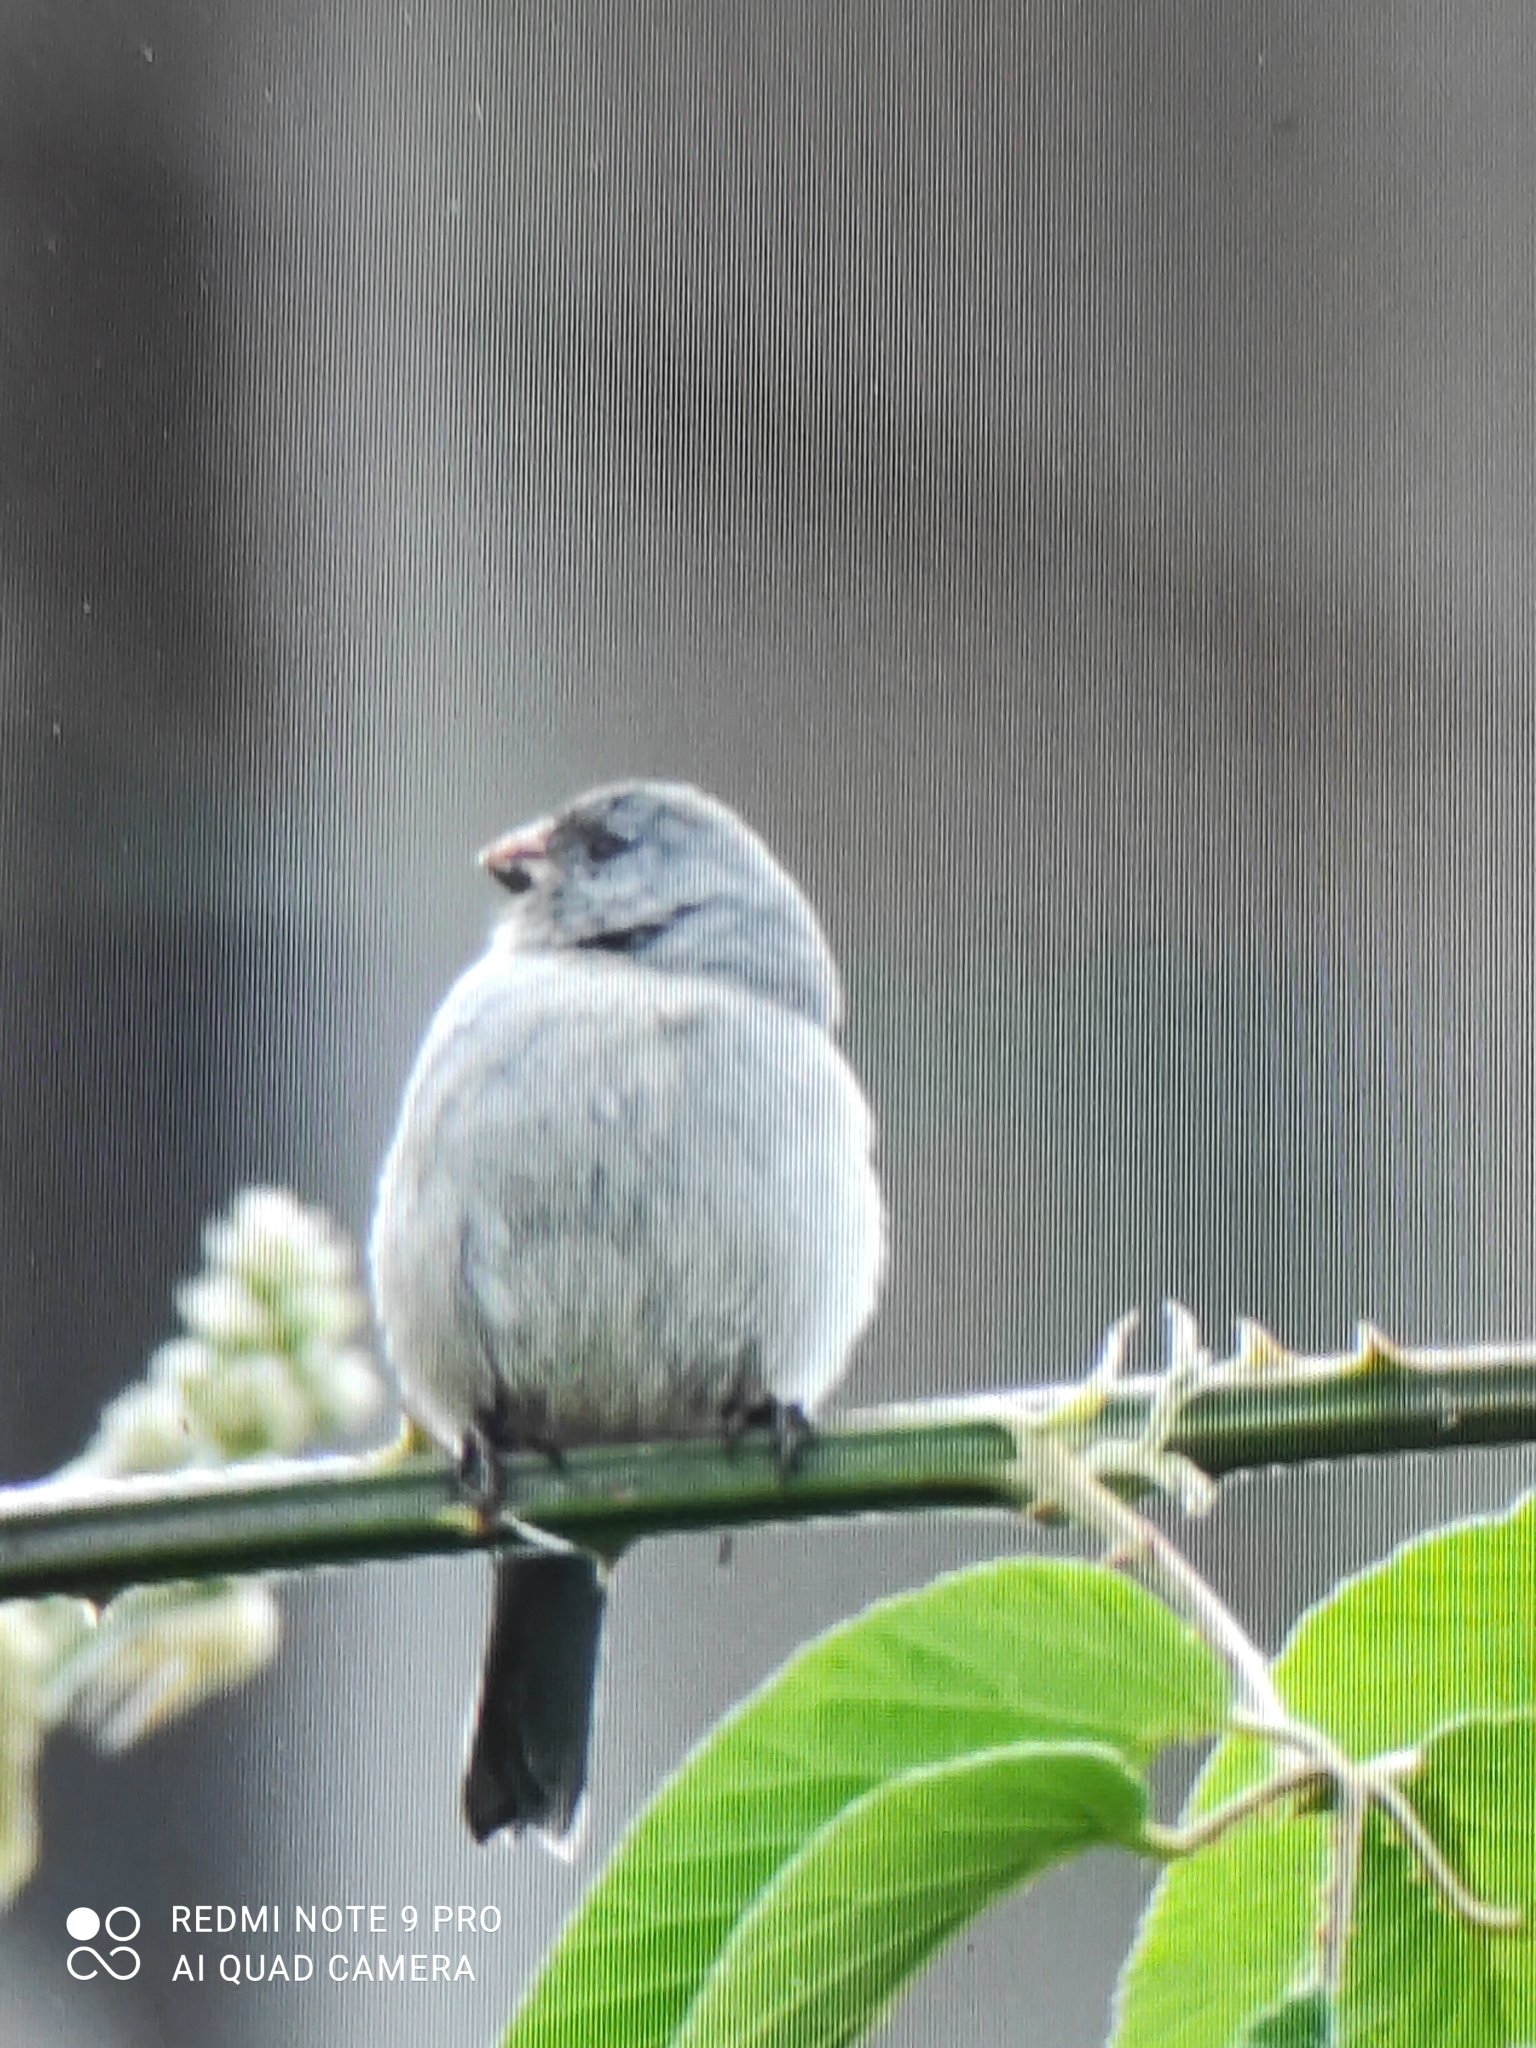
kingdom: Animalia
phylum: Chordata
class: Aves
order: Passeriformes
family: Thraupidae
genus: Catamenia
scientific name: Catamenia inornata
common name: Plain-colored seedeater
